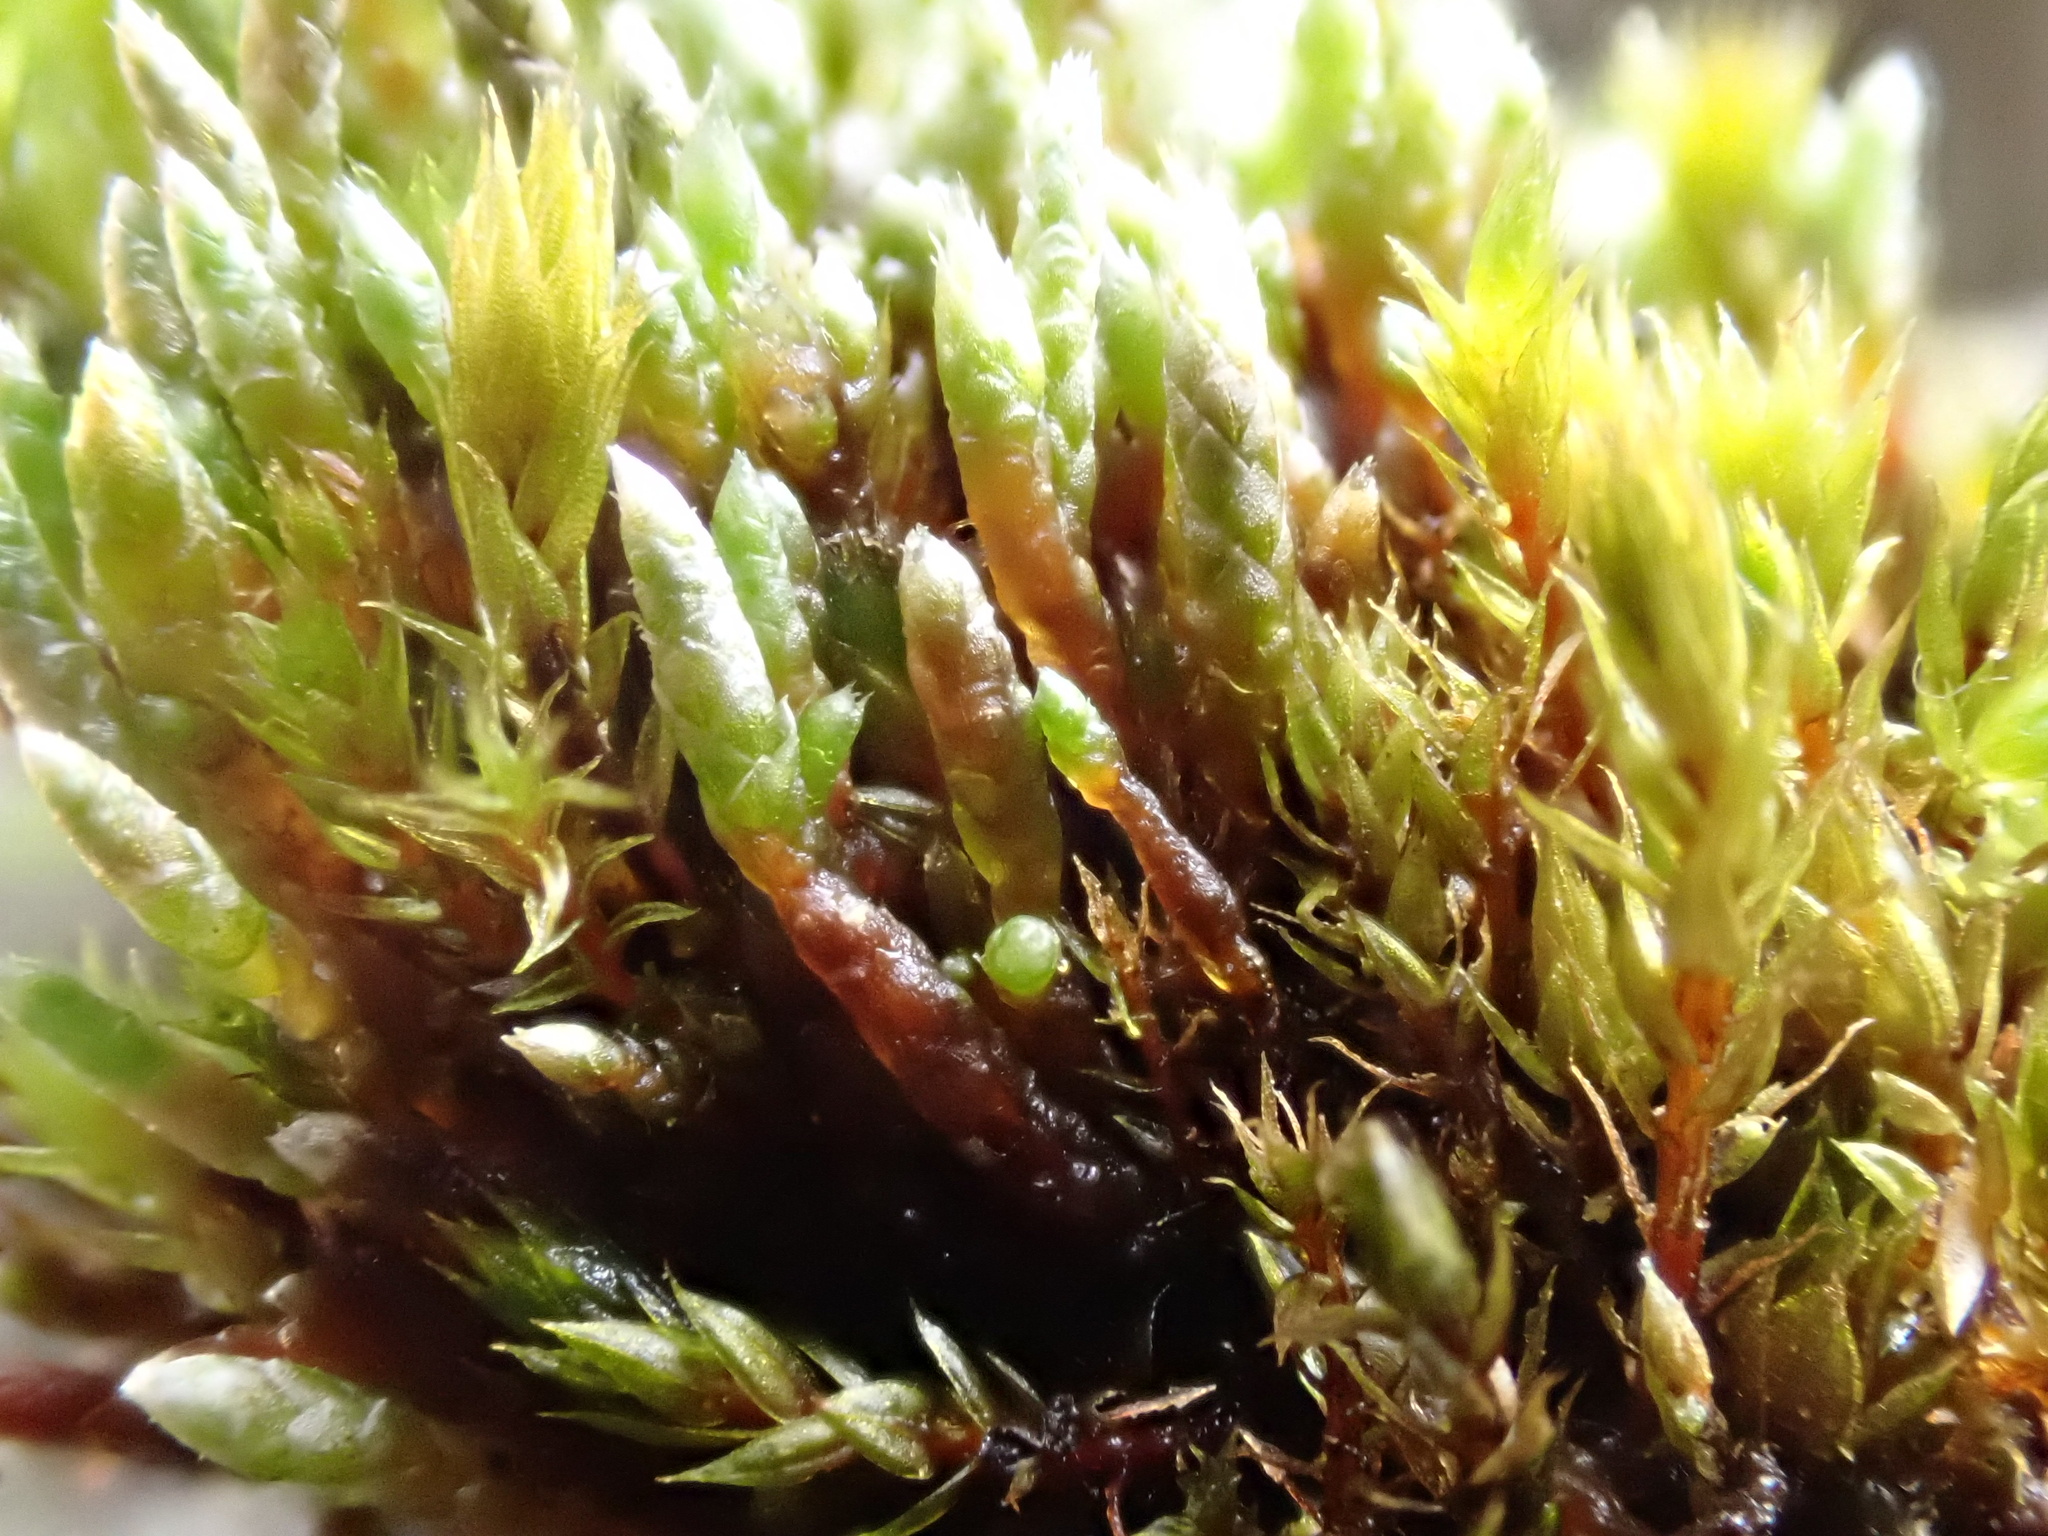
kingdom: Plantae
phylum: Bryophyta
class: Bryopsida
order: Bryales
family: Bryaceae
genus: Bryum
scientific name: Bryum argenteum
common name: Silver-moss
